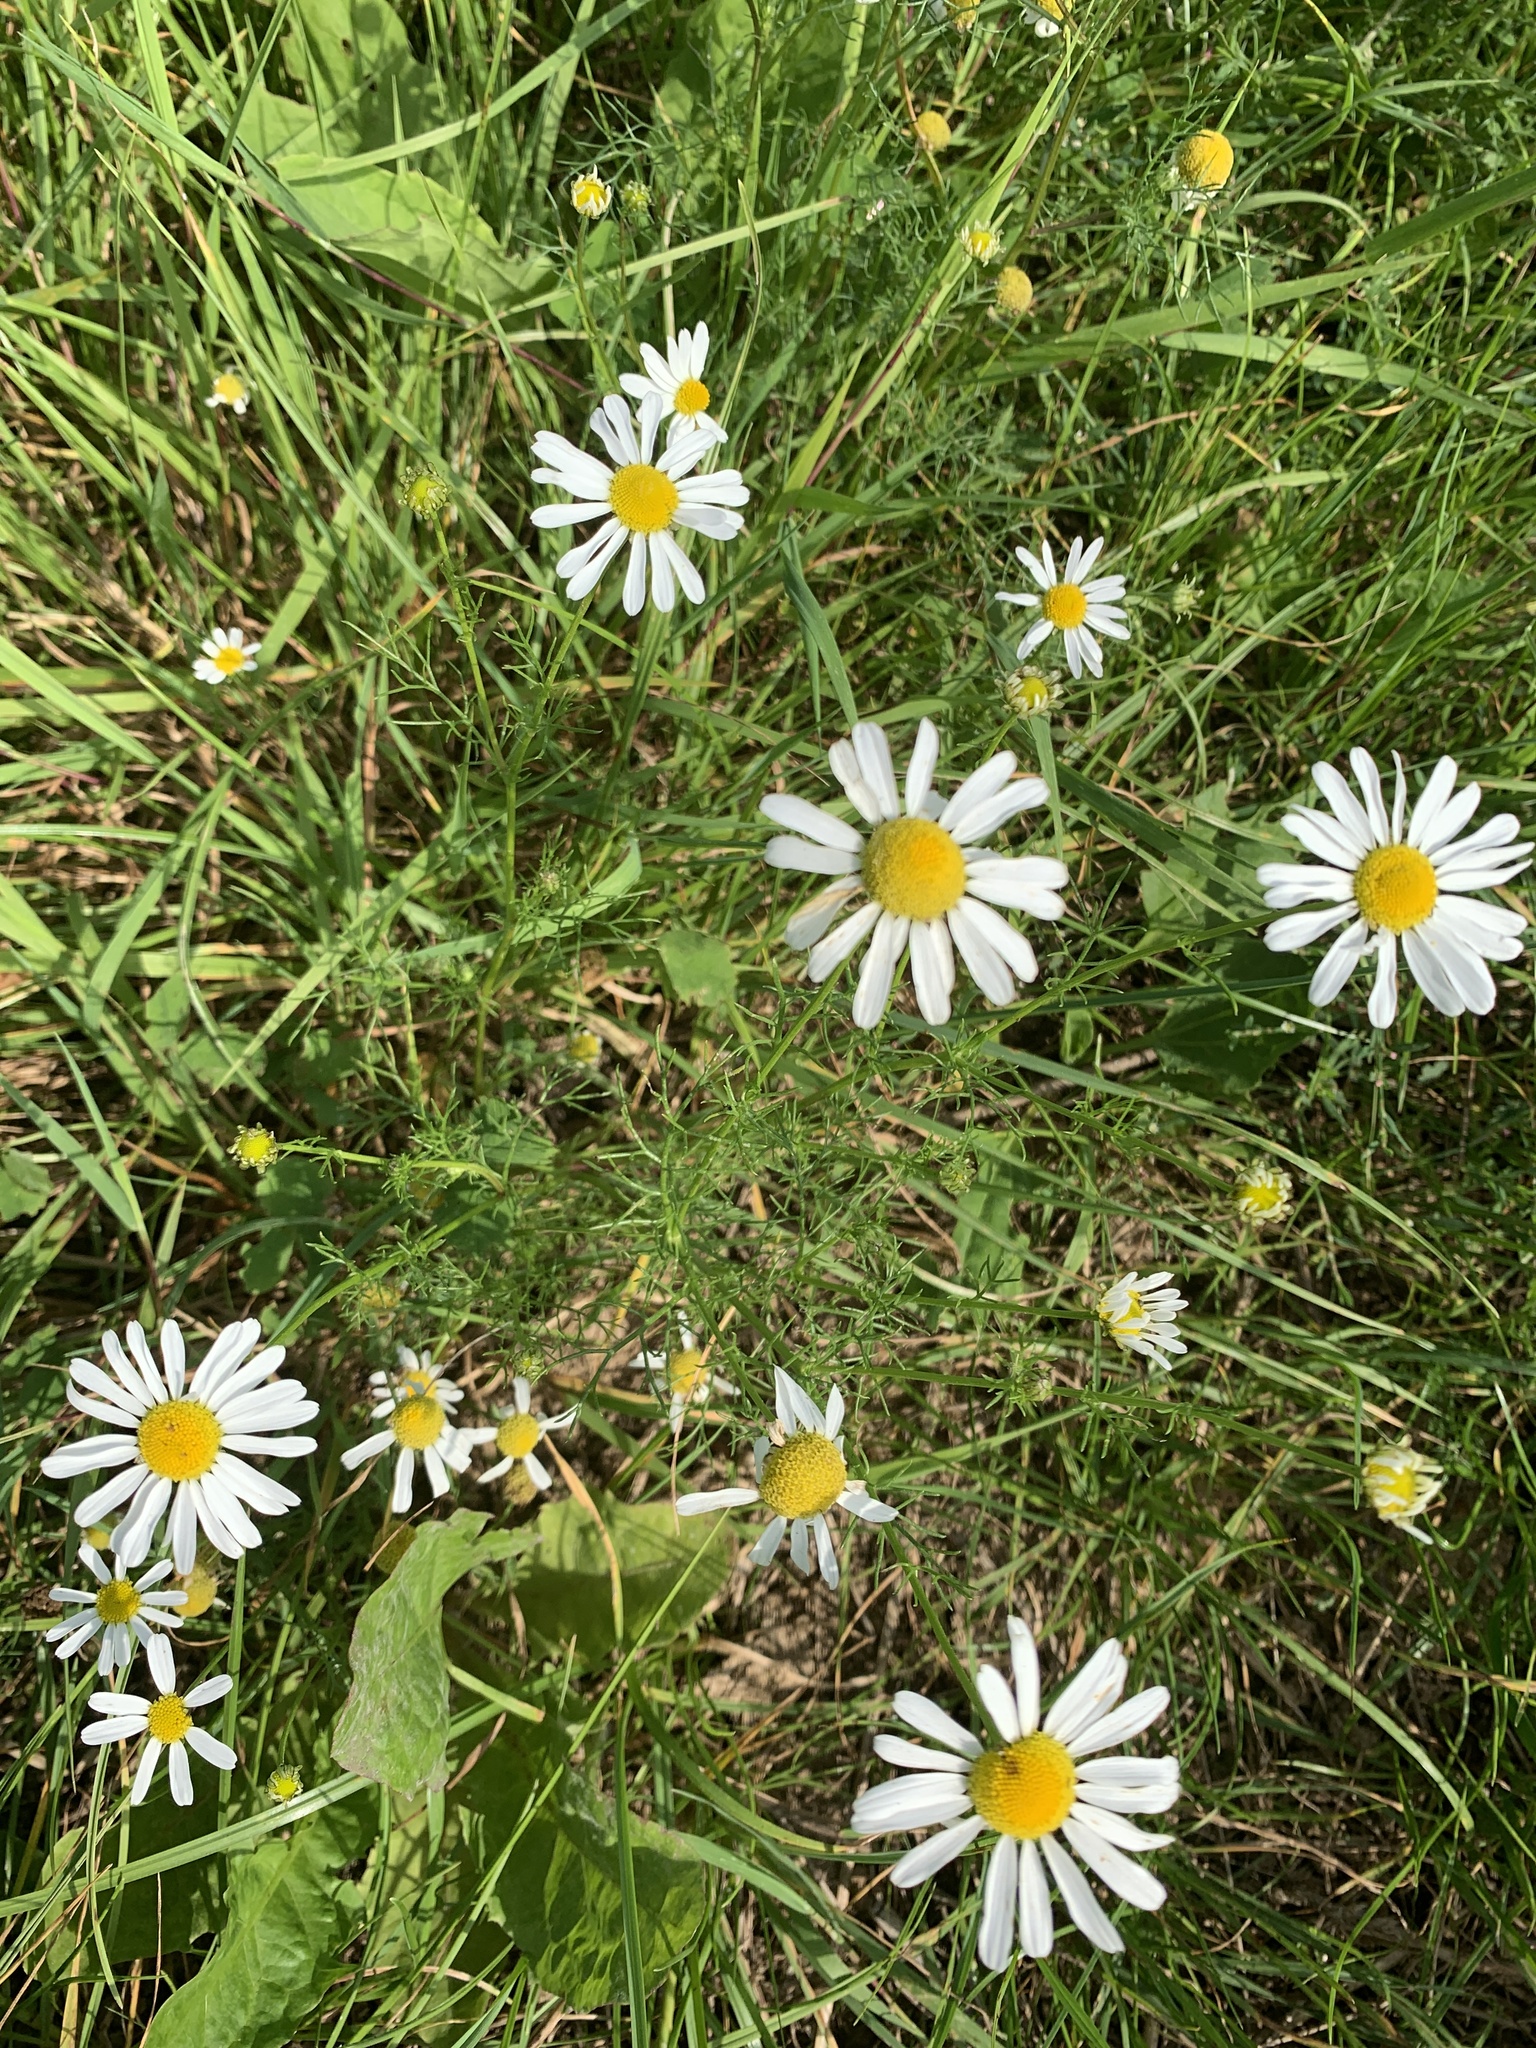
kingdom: Plantae
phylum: Tracheophyta
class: Magnoliopsida
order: Asterales
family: Asteraceae
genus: Tripleurospermum
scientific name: Tripleurospermum inodorum
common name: Scentless mayweed
